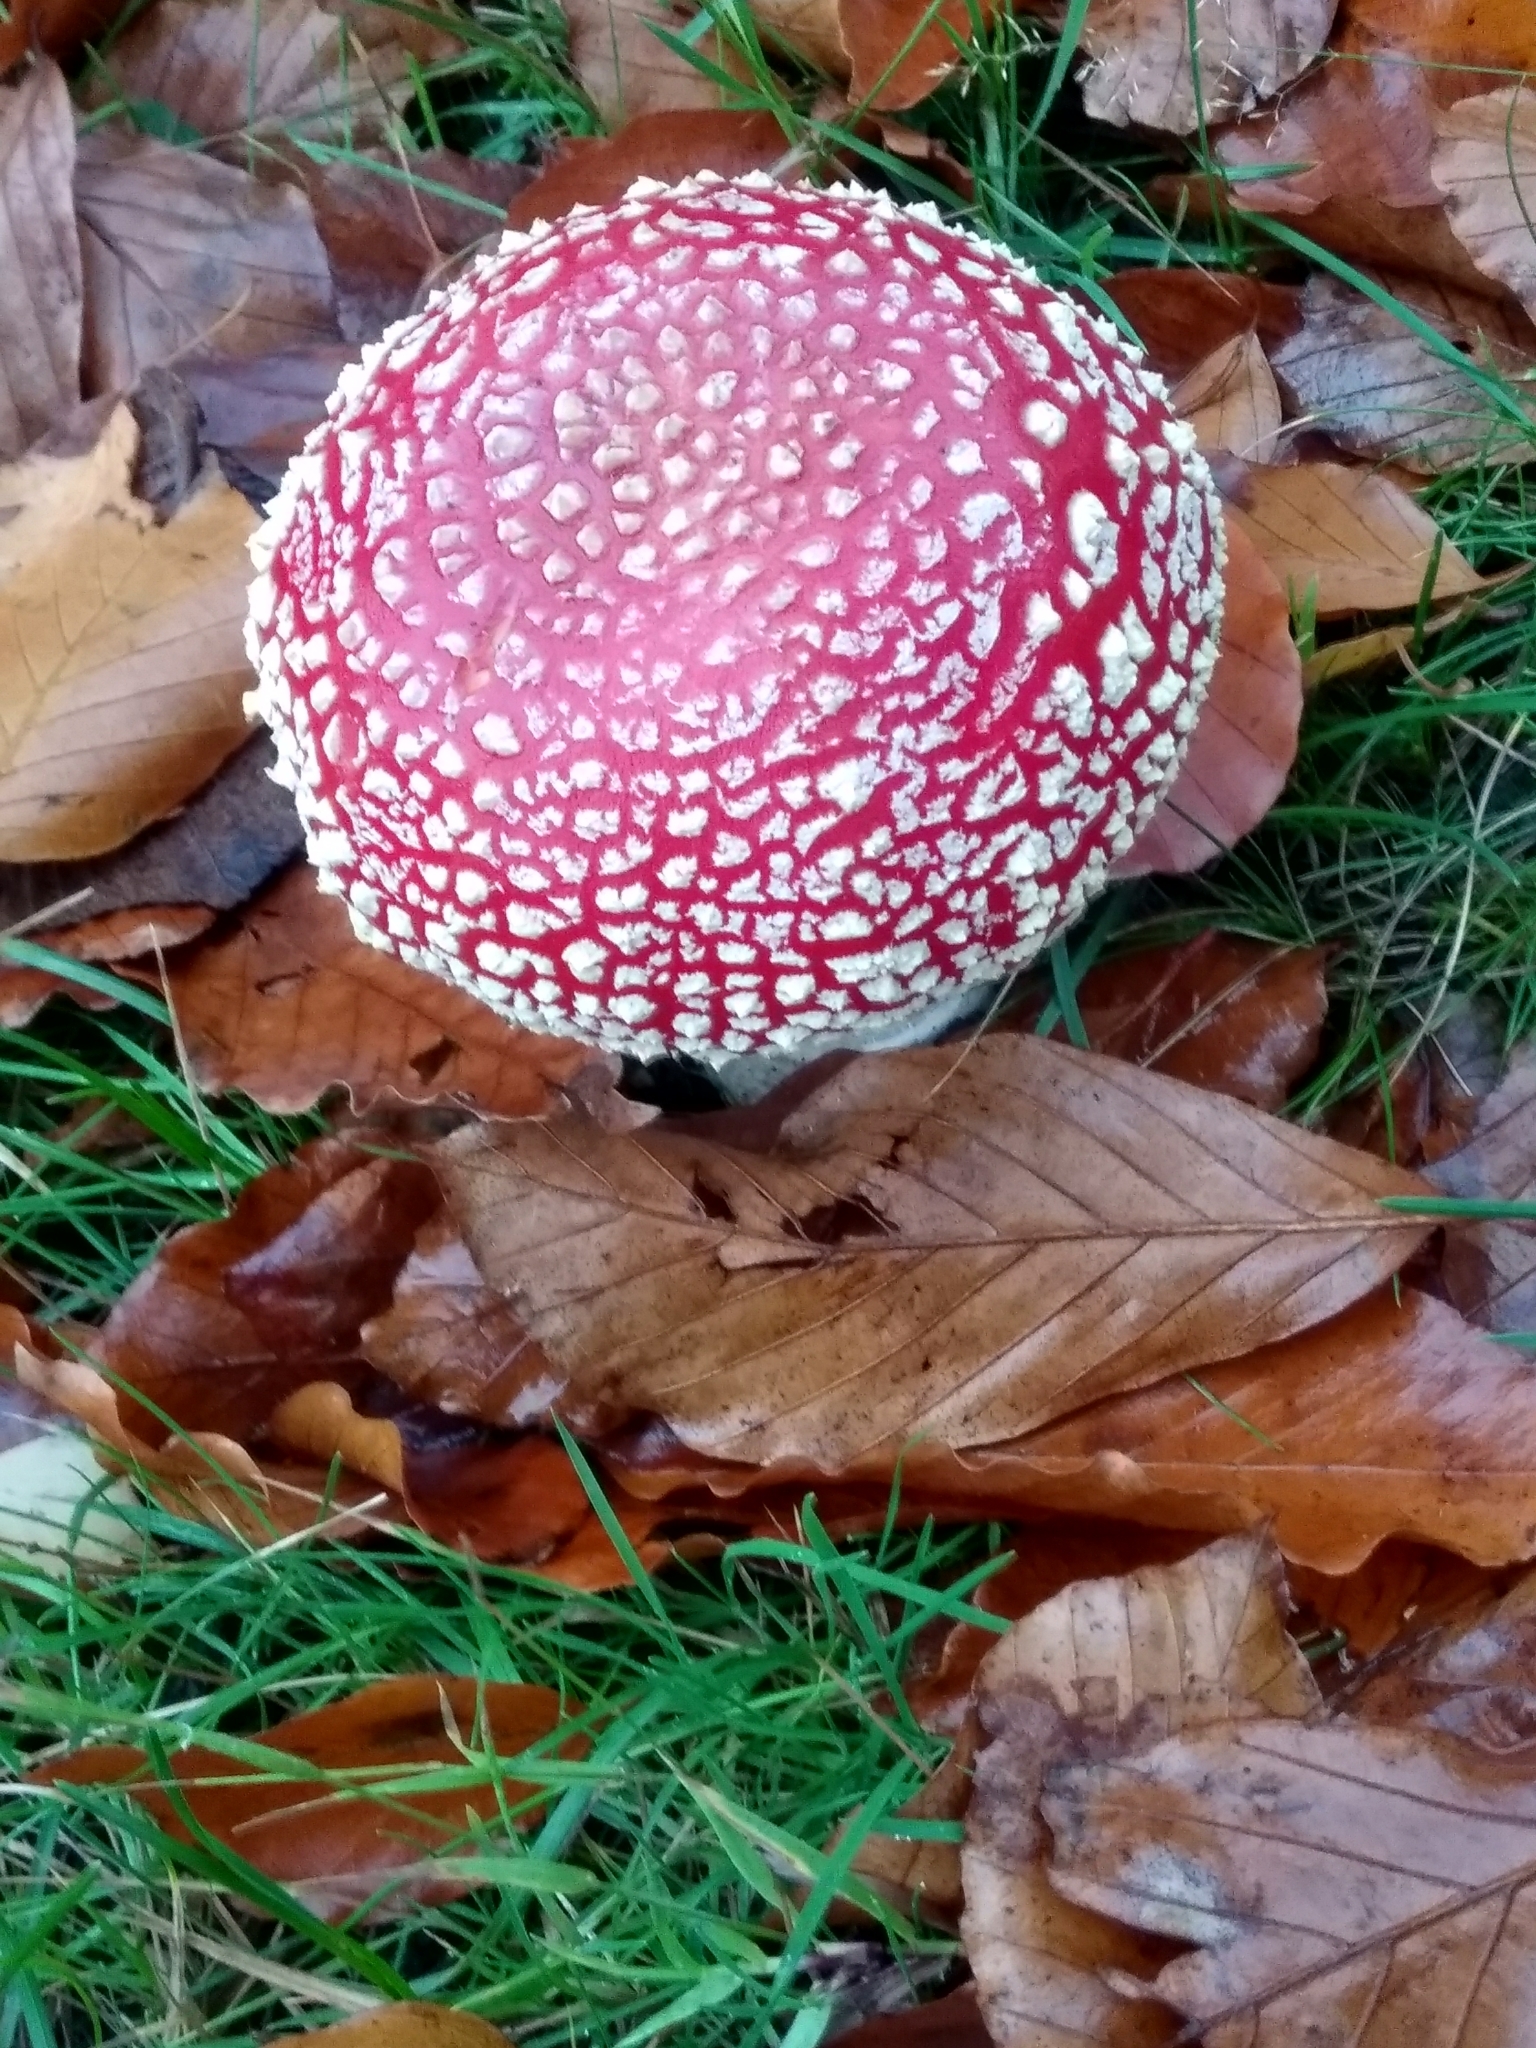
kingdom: Fungi
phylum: Basidiomycota
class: Agaricomycetes
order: Agaricales
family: Amanitaceae
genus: Amanita
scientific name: Amanita muscaria
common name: Fly agaric
